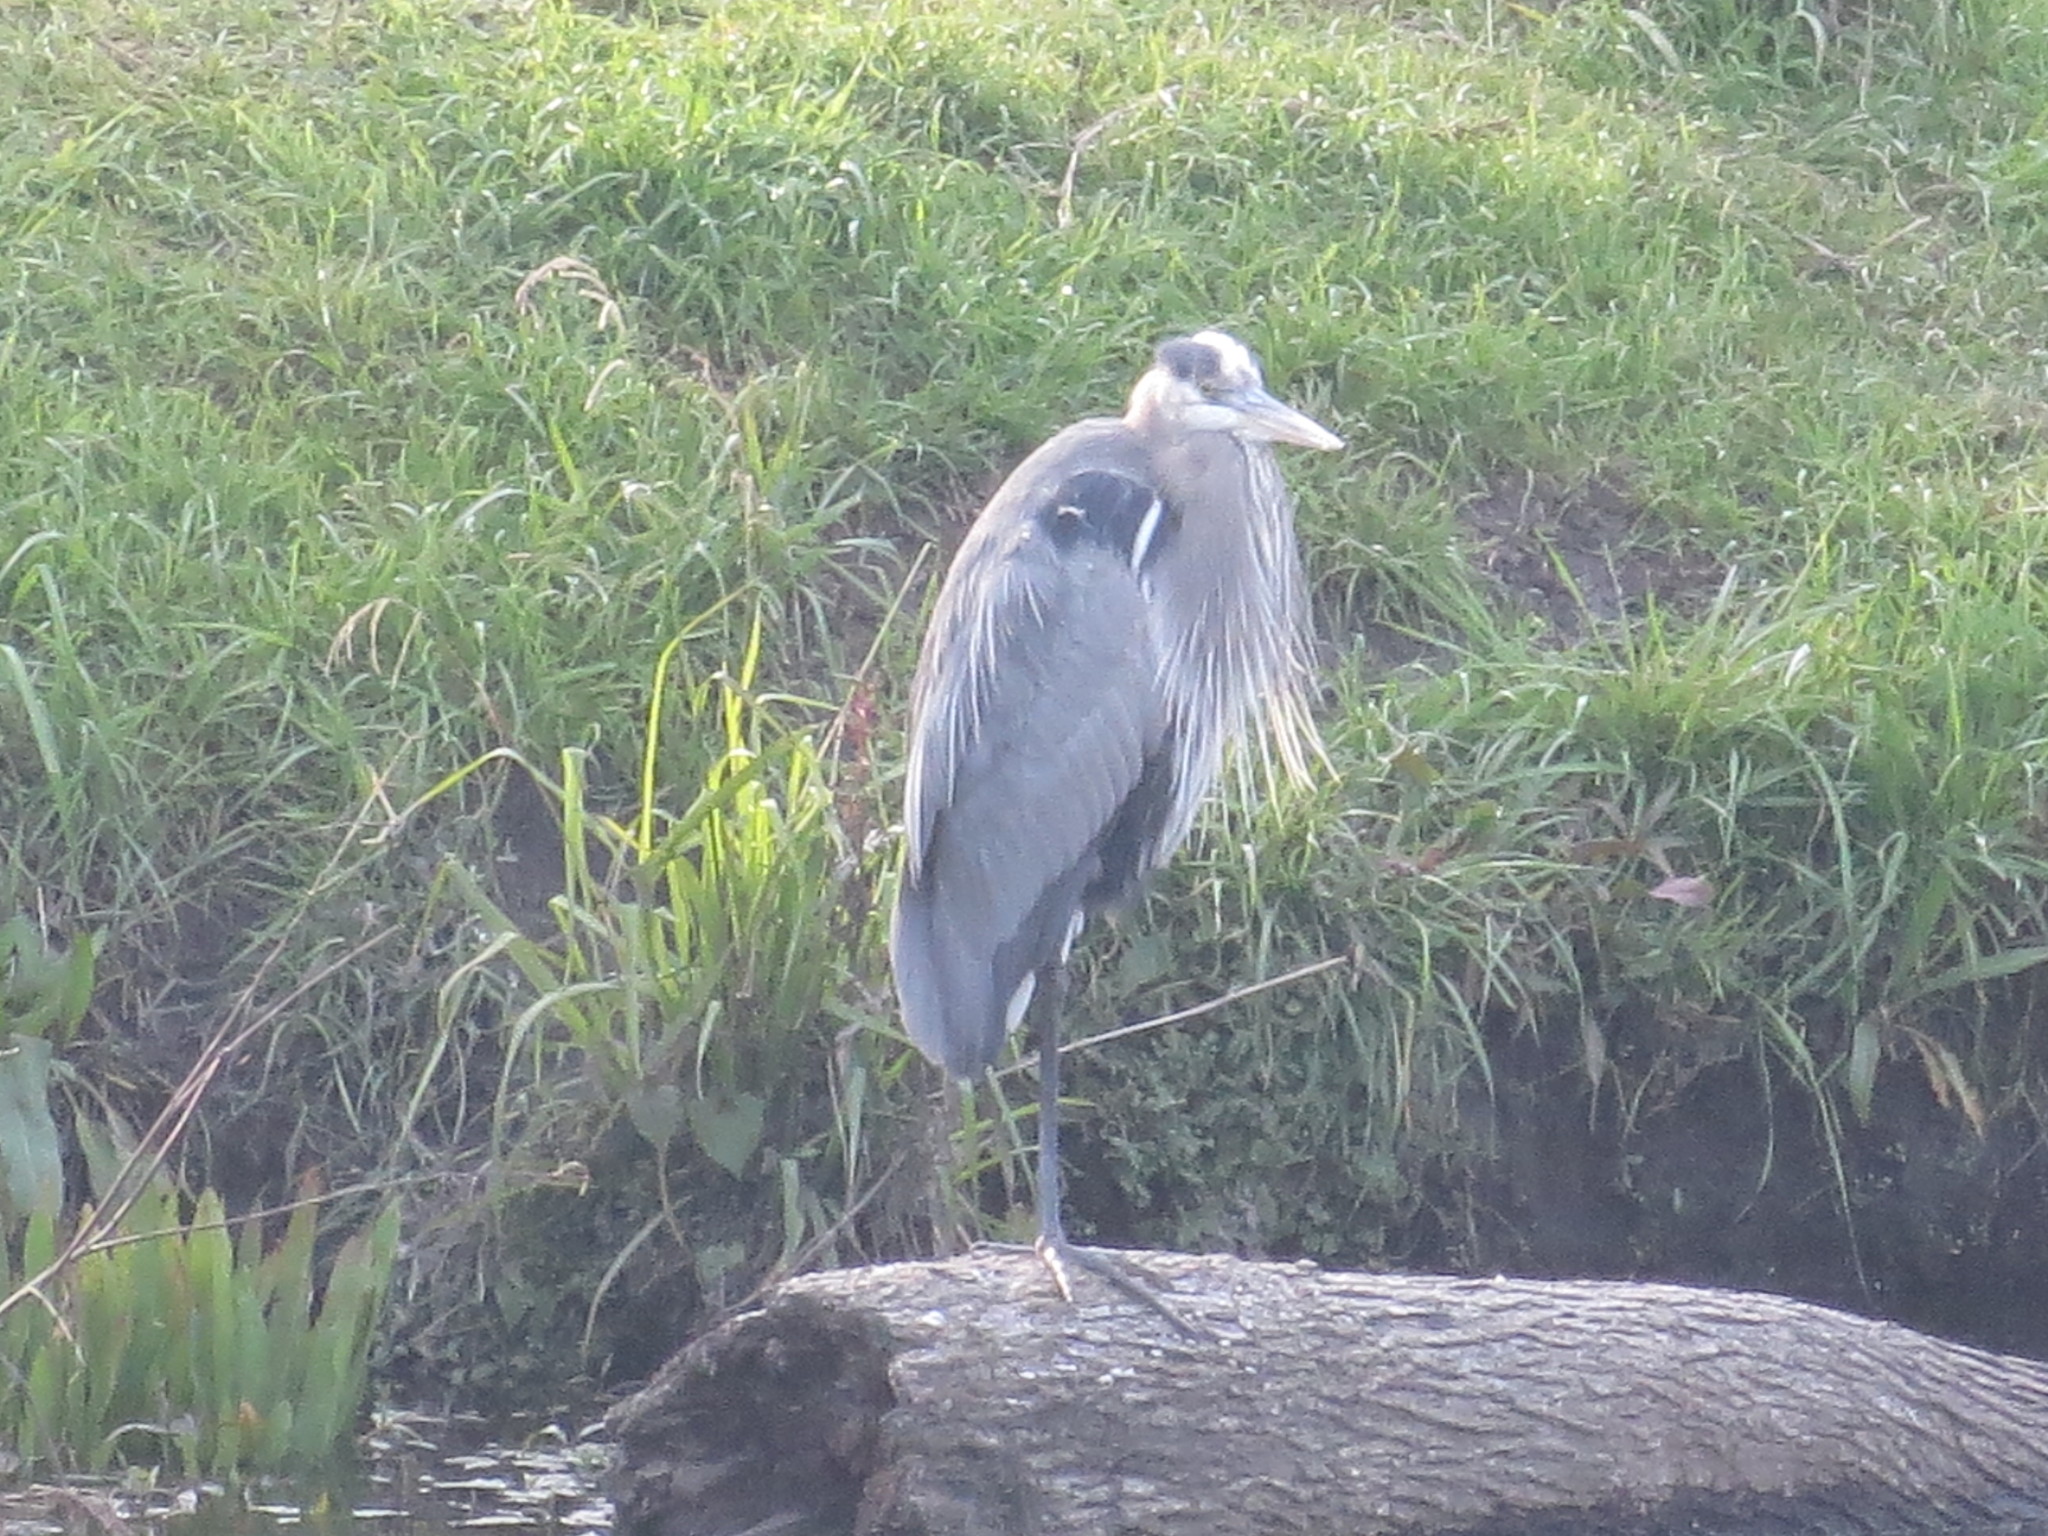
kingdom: Animalia
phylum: Chordata
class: Aves
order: Pelecaniformes
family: Ardeidae
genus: Ardea
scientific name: Ardea herodias
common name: Great blue heron
